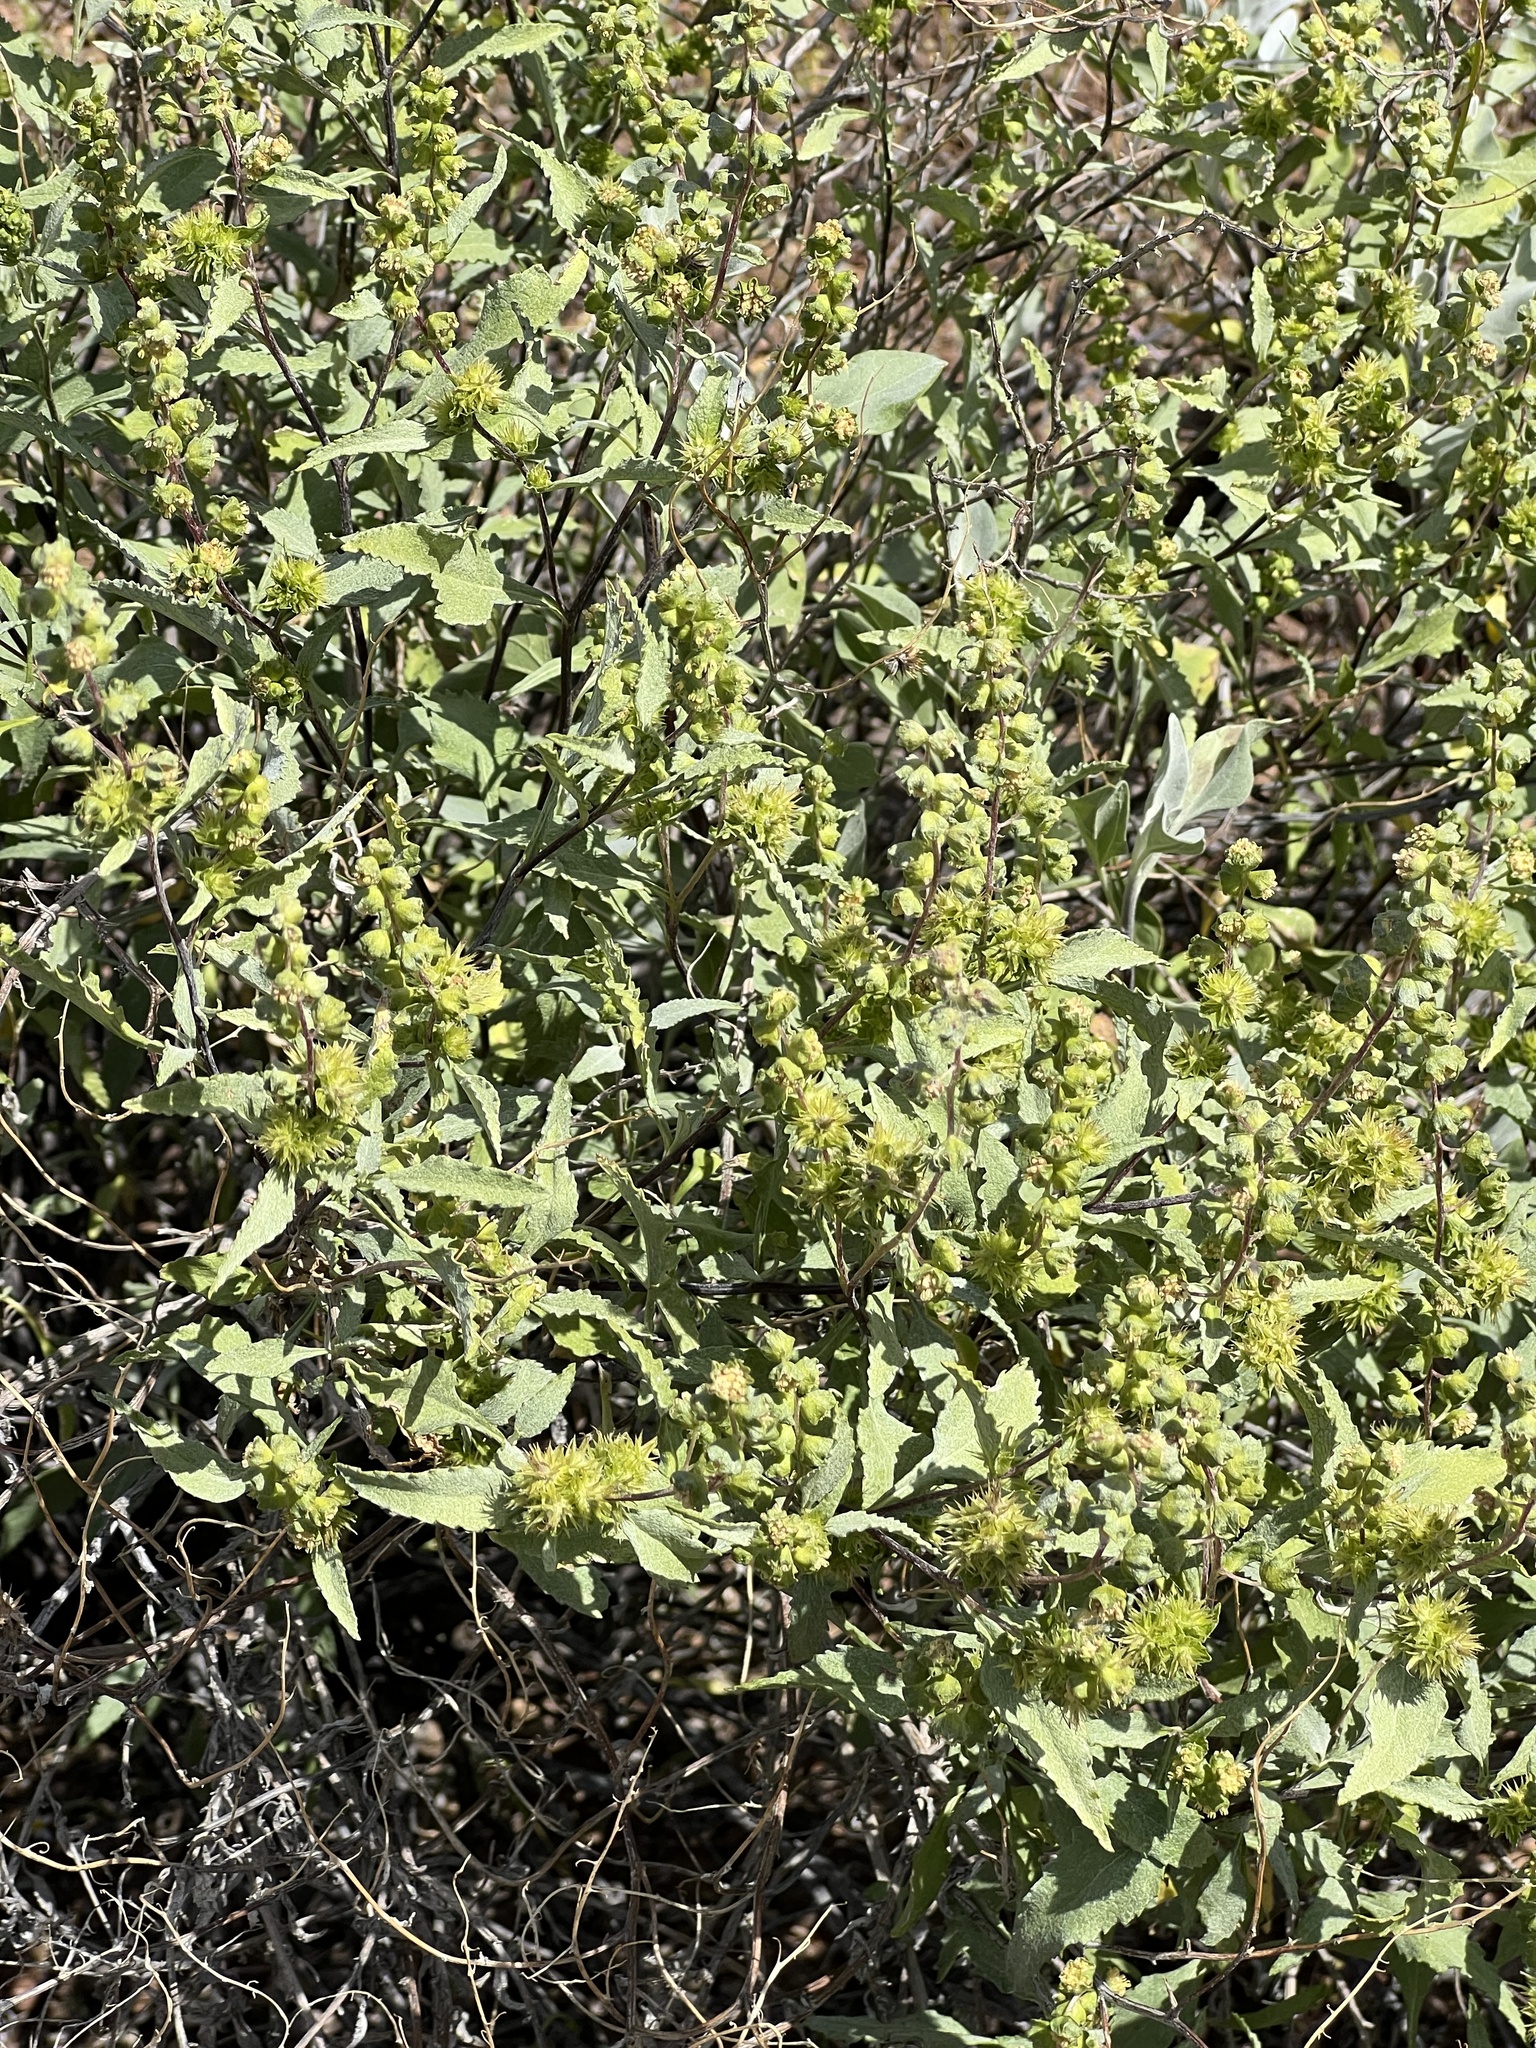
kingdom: Plantae
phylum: Tracheophyta
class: Magnoliopsida
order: Asterales
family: Asteraceae
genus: Ambrosia
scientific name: Ambrosia deltoidea
